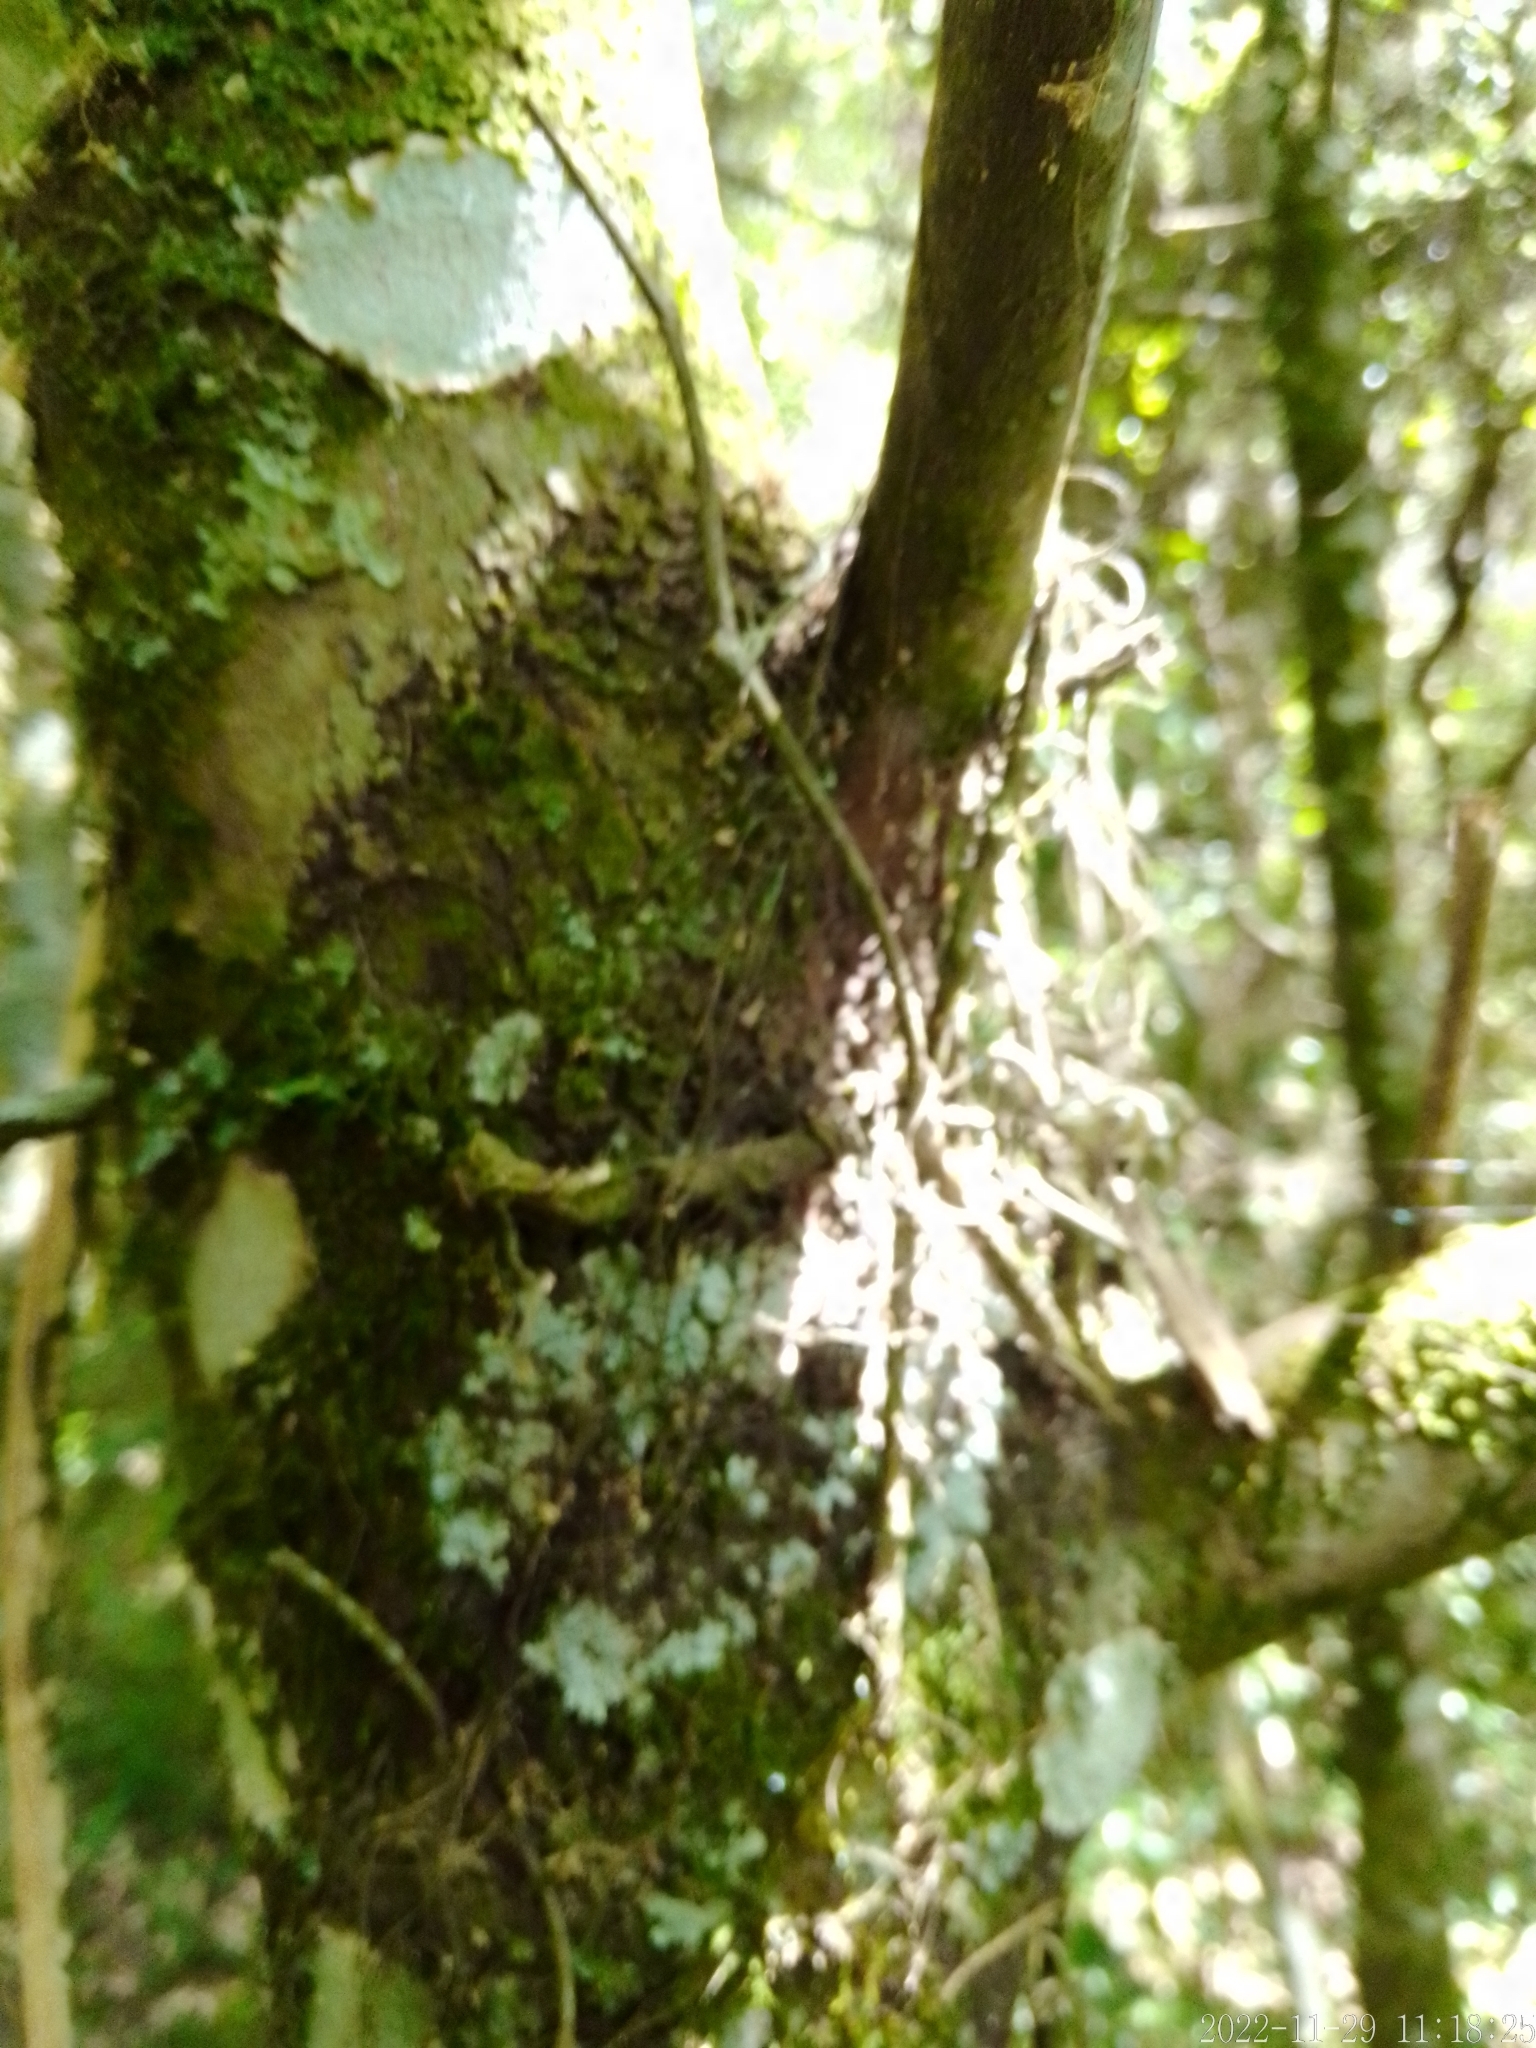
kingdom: Plantae
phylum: Tracheophyta
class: Magnoliopsida
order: Ericales
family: Styracaceae
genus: Styrax
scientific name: Styrax leprosus
